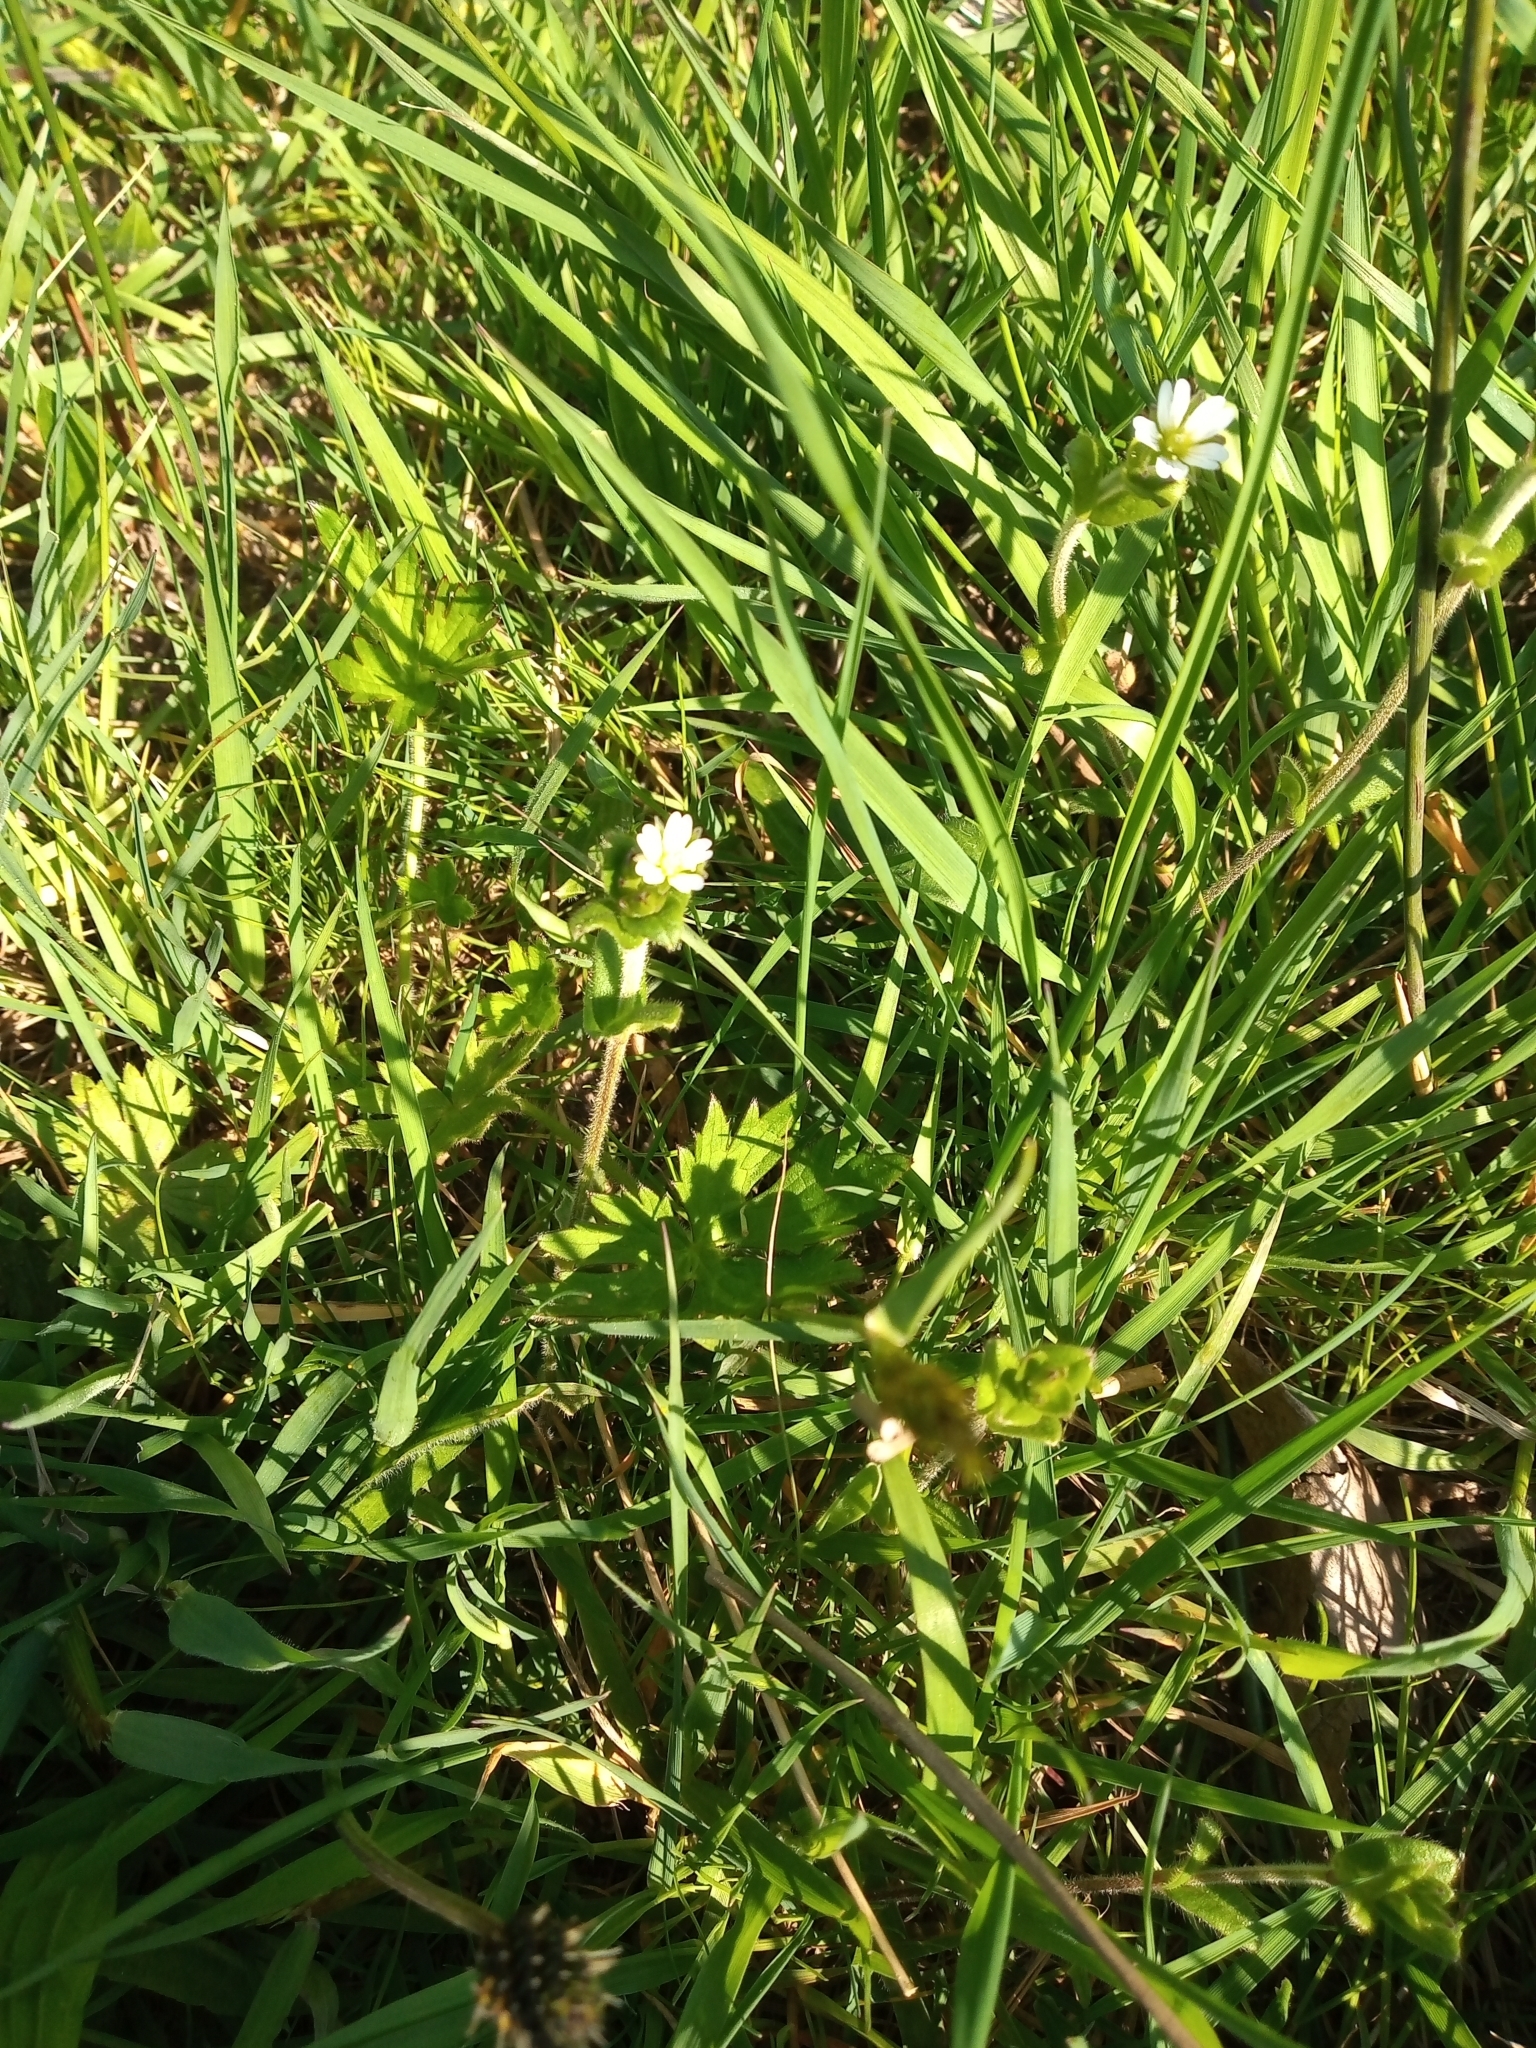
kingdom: Plantae
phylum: Tracheophyta
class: Magnoliopsida
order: Caryophyllales
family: Caryophyllaceae
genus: Cerastium
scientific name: Cerastium fontanum
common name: Common mouse-ear
